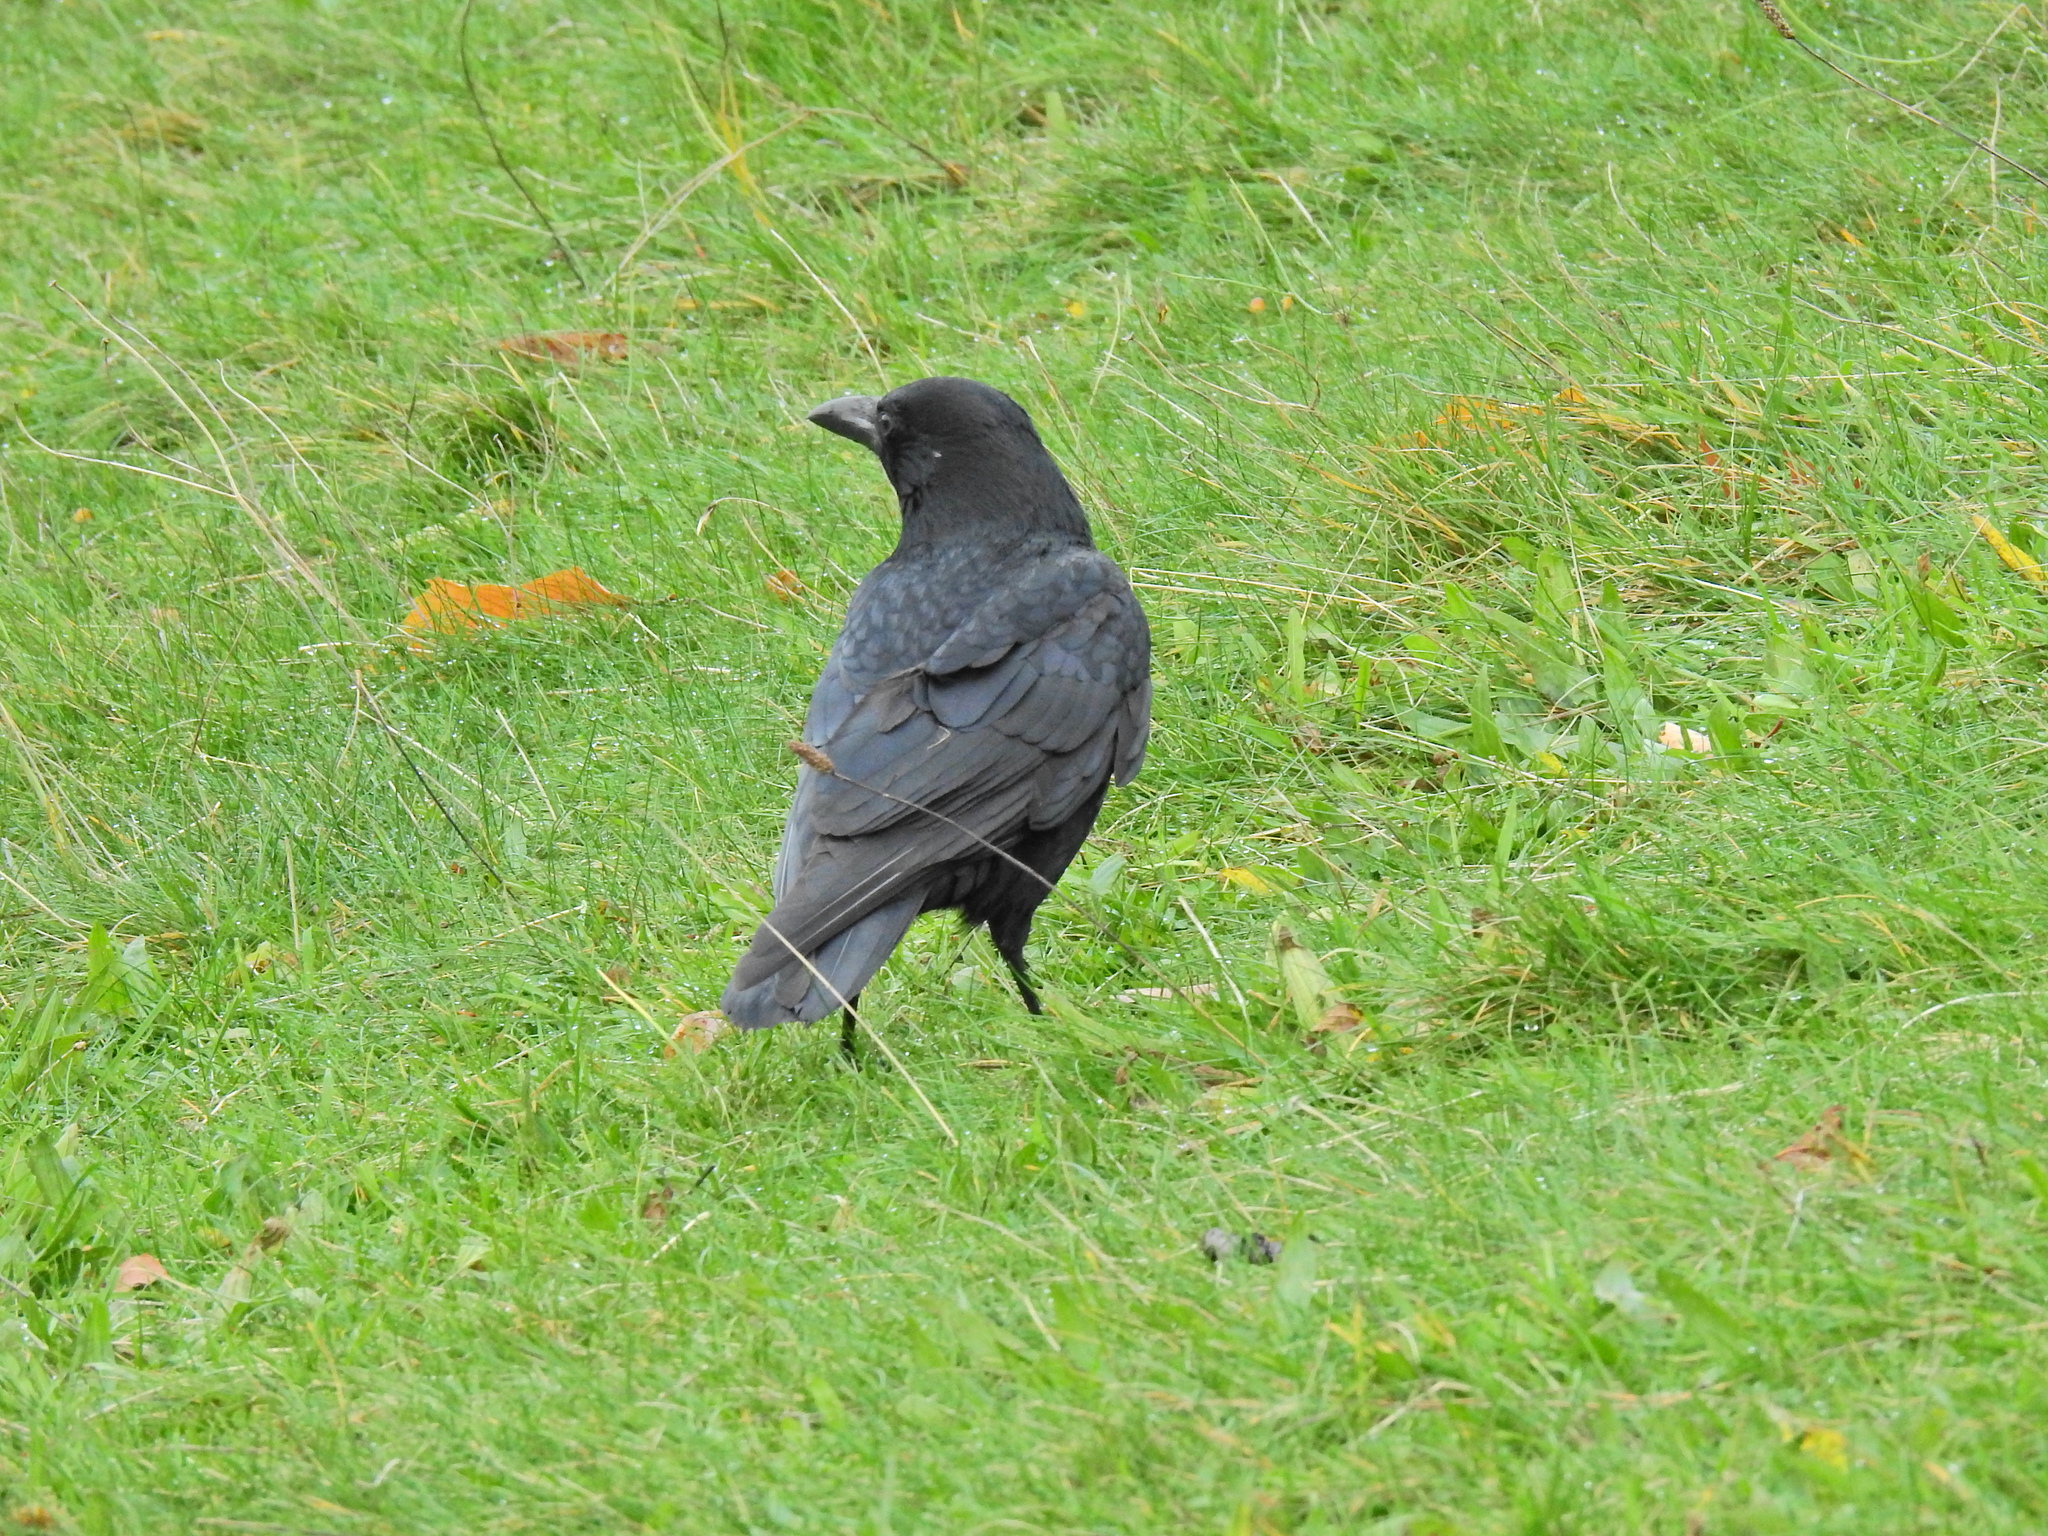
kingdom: Animalia
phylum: Chordata
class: Aves
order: Passeriformes
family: Corvidae
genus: Corvus
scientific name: Corvus corone
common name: Carrion crow
